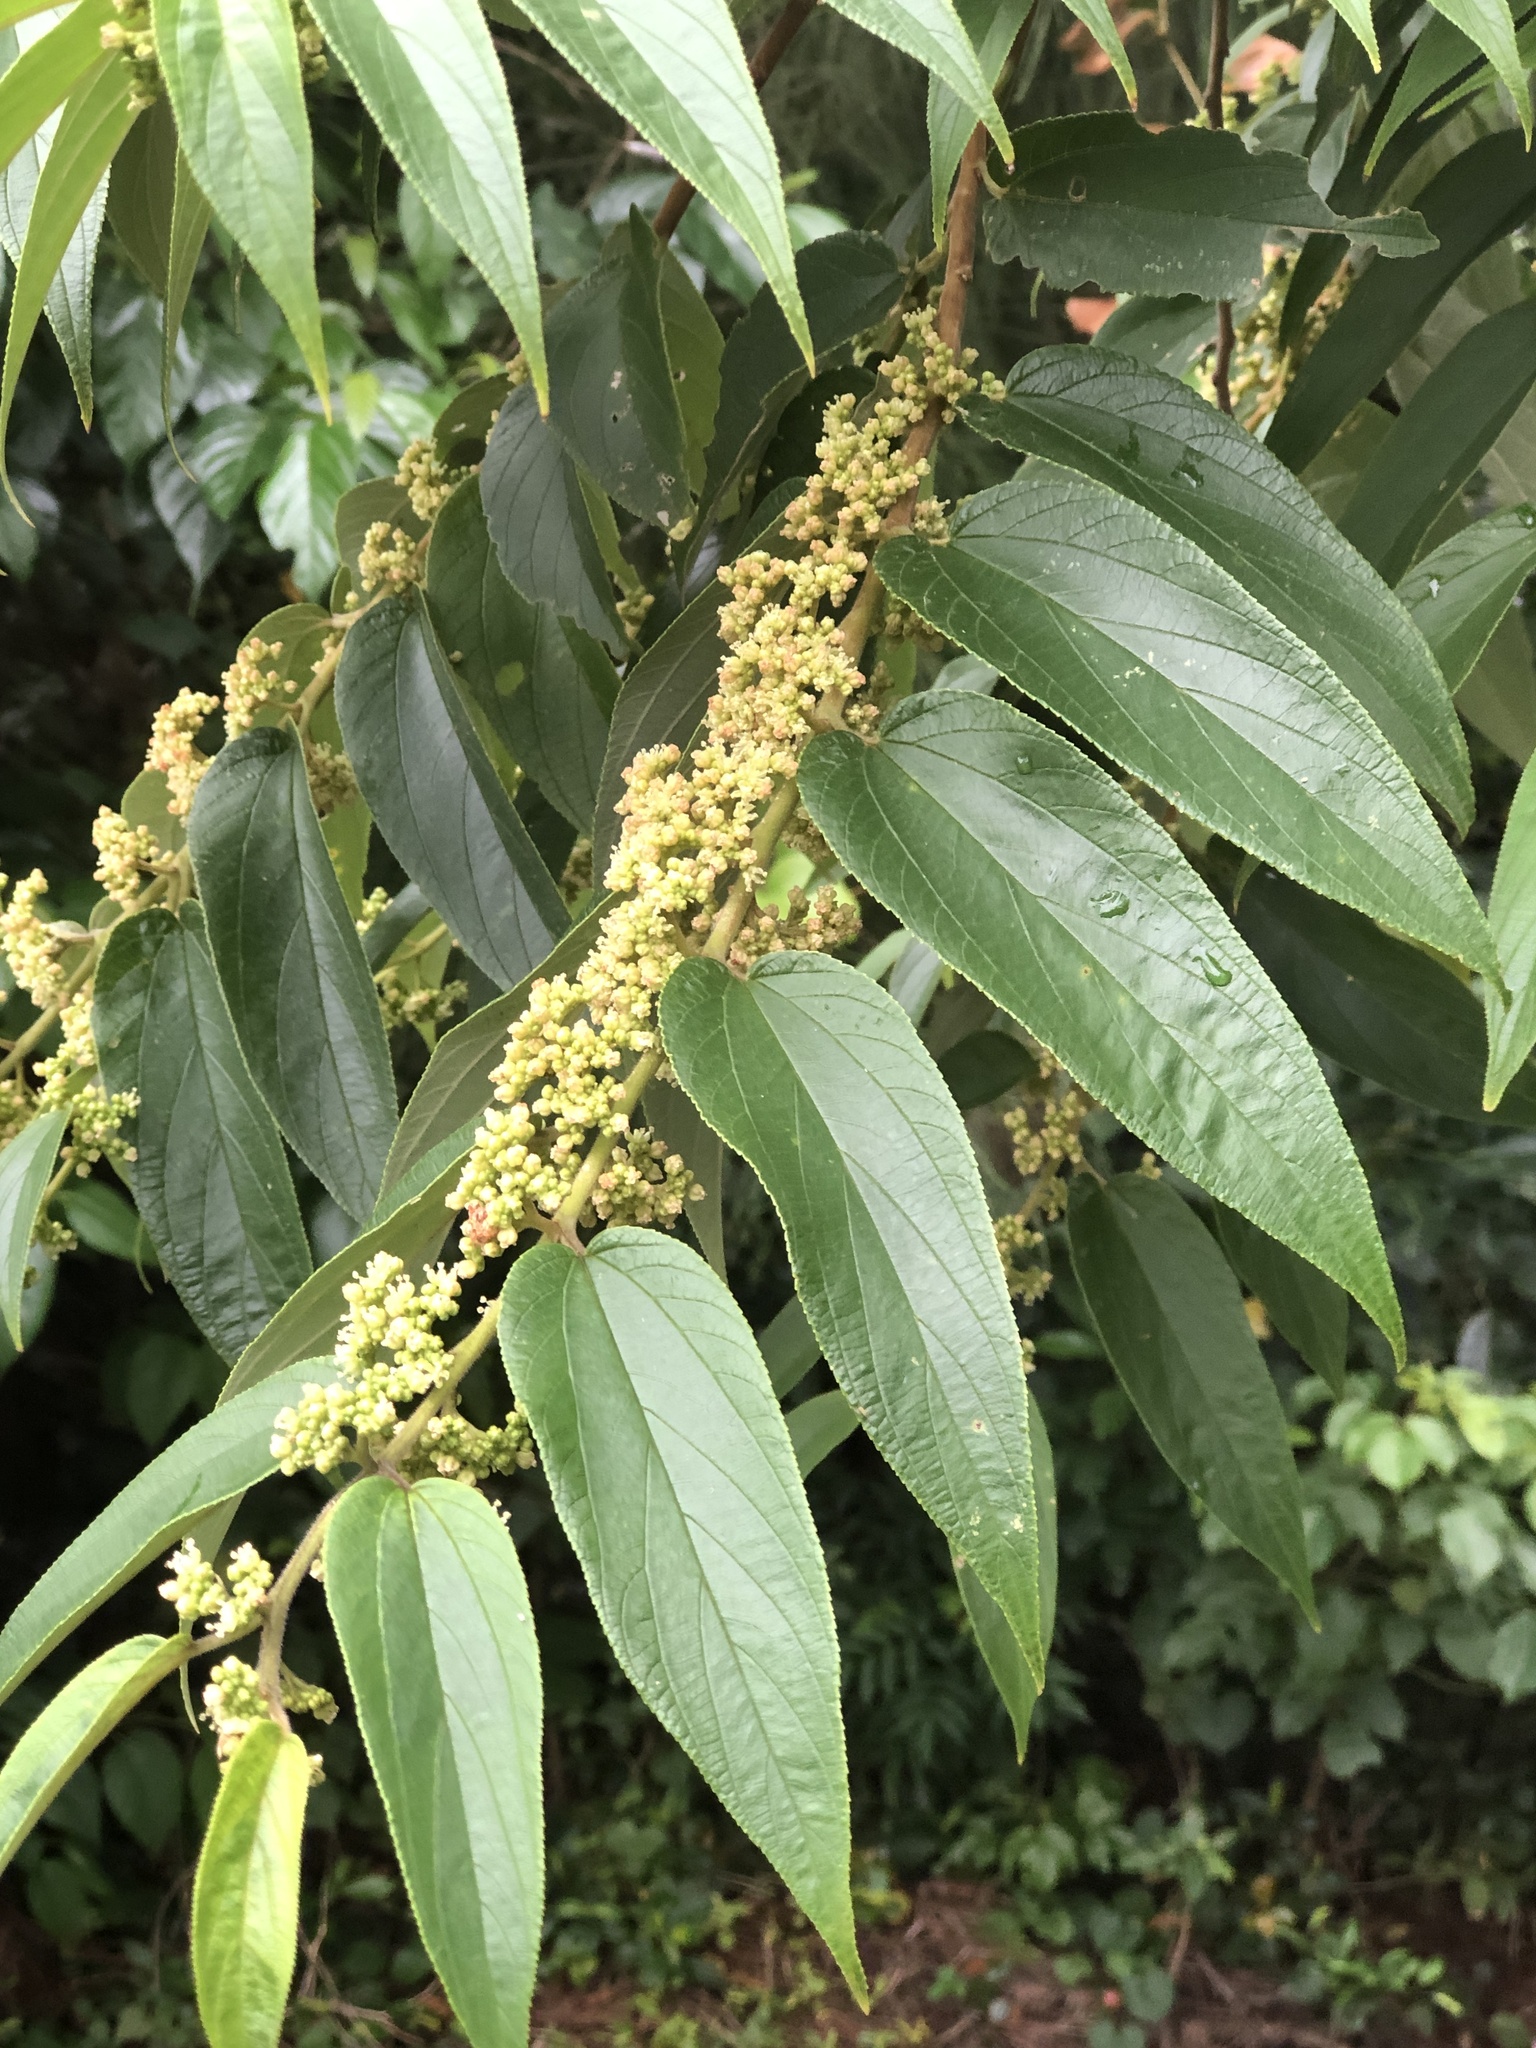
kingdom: Plantae
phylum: Tracheophyta
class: Magnoliopsida
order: Rosales
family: Cannabaceae
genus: Trema
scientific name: Trema orientale
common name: Indian charcoal tree
